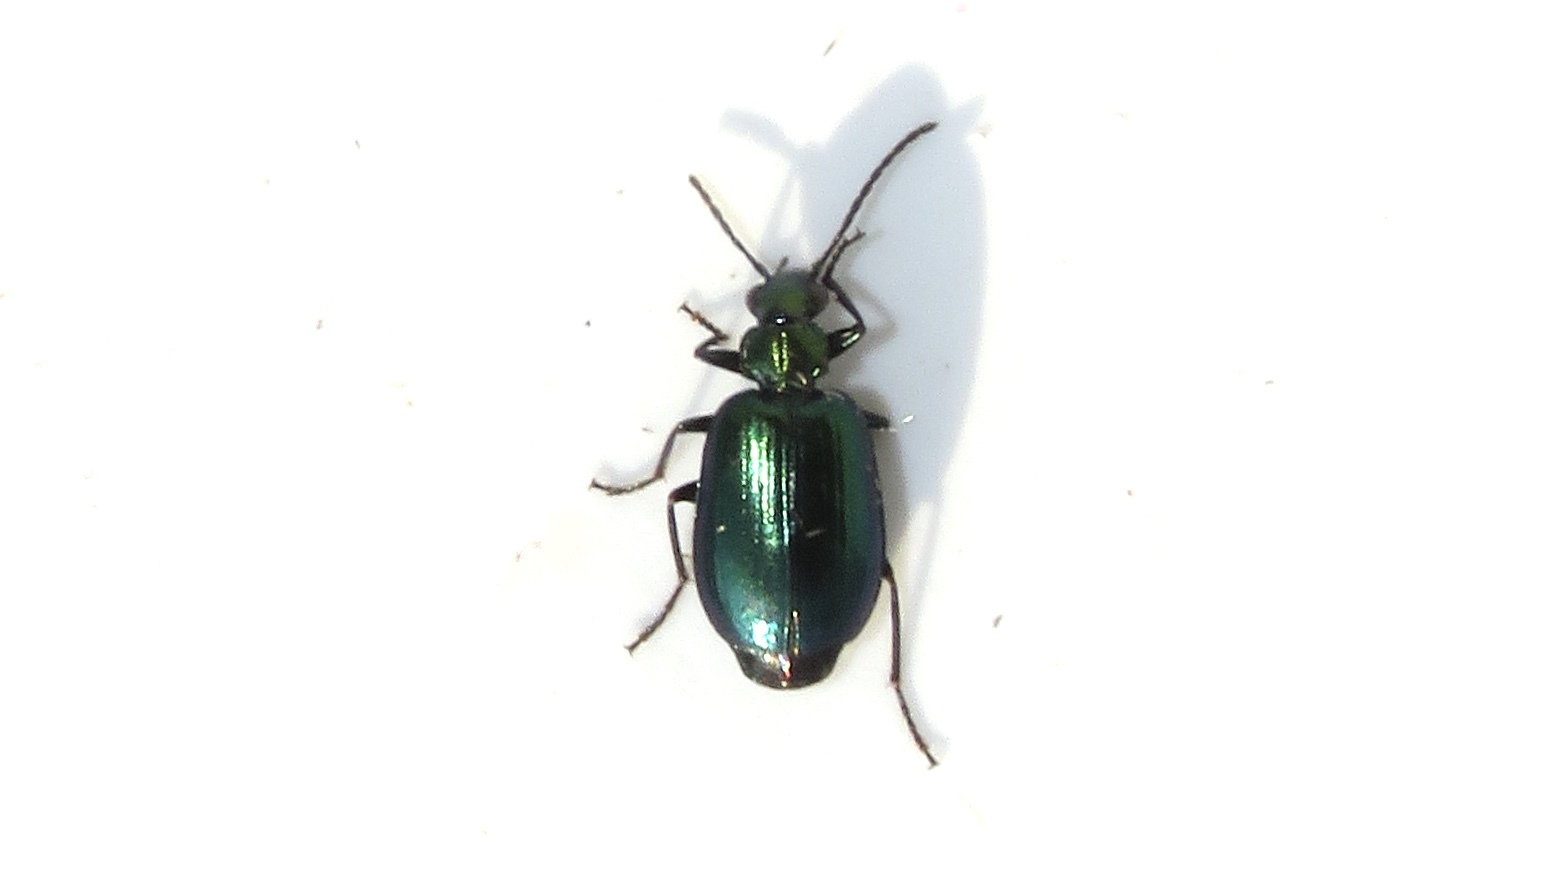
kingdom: Animalia
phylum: Arthropoda
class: Insecta
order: Coleoptera
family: Carabidae
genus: Lebia
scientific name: Lebia viridis
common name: Flower lebia beetle
